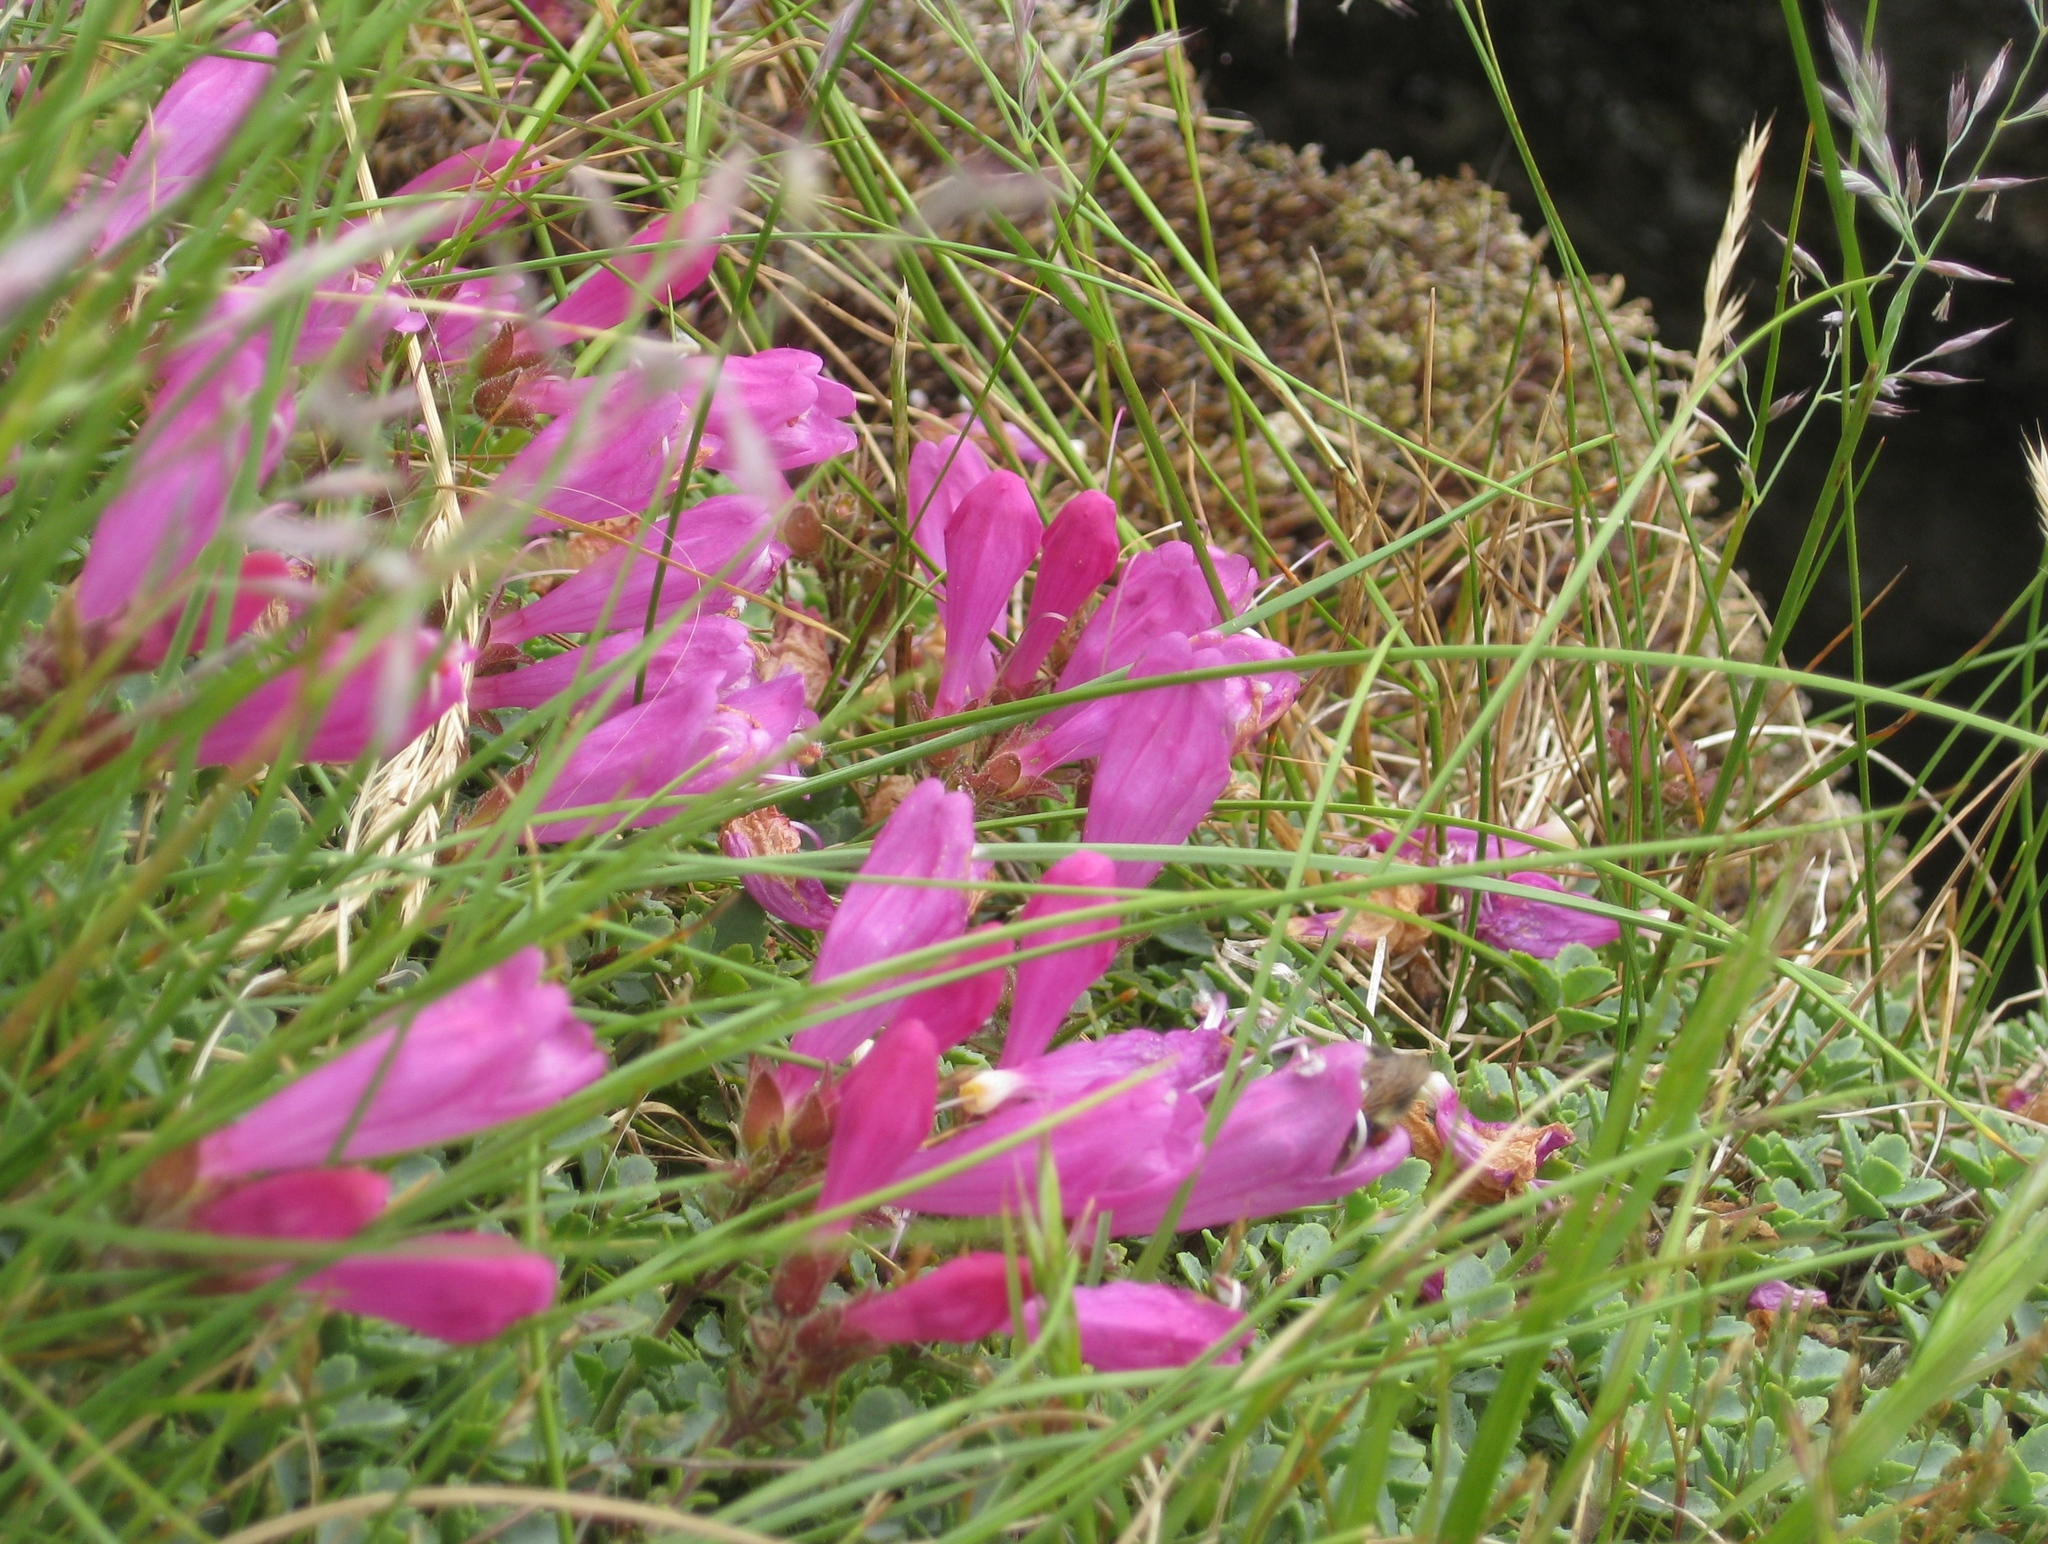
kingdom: Plantae
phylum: Tracheophyta
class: Magnoliopsida
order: Lamiales
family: Plantaginaceae
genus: Penstemon
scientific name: Penstemon rupicola
